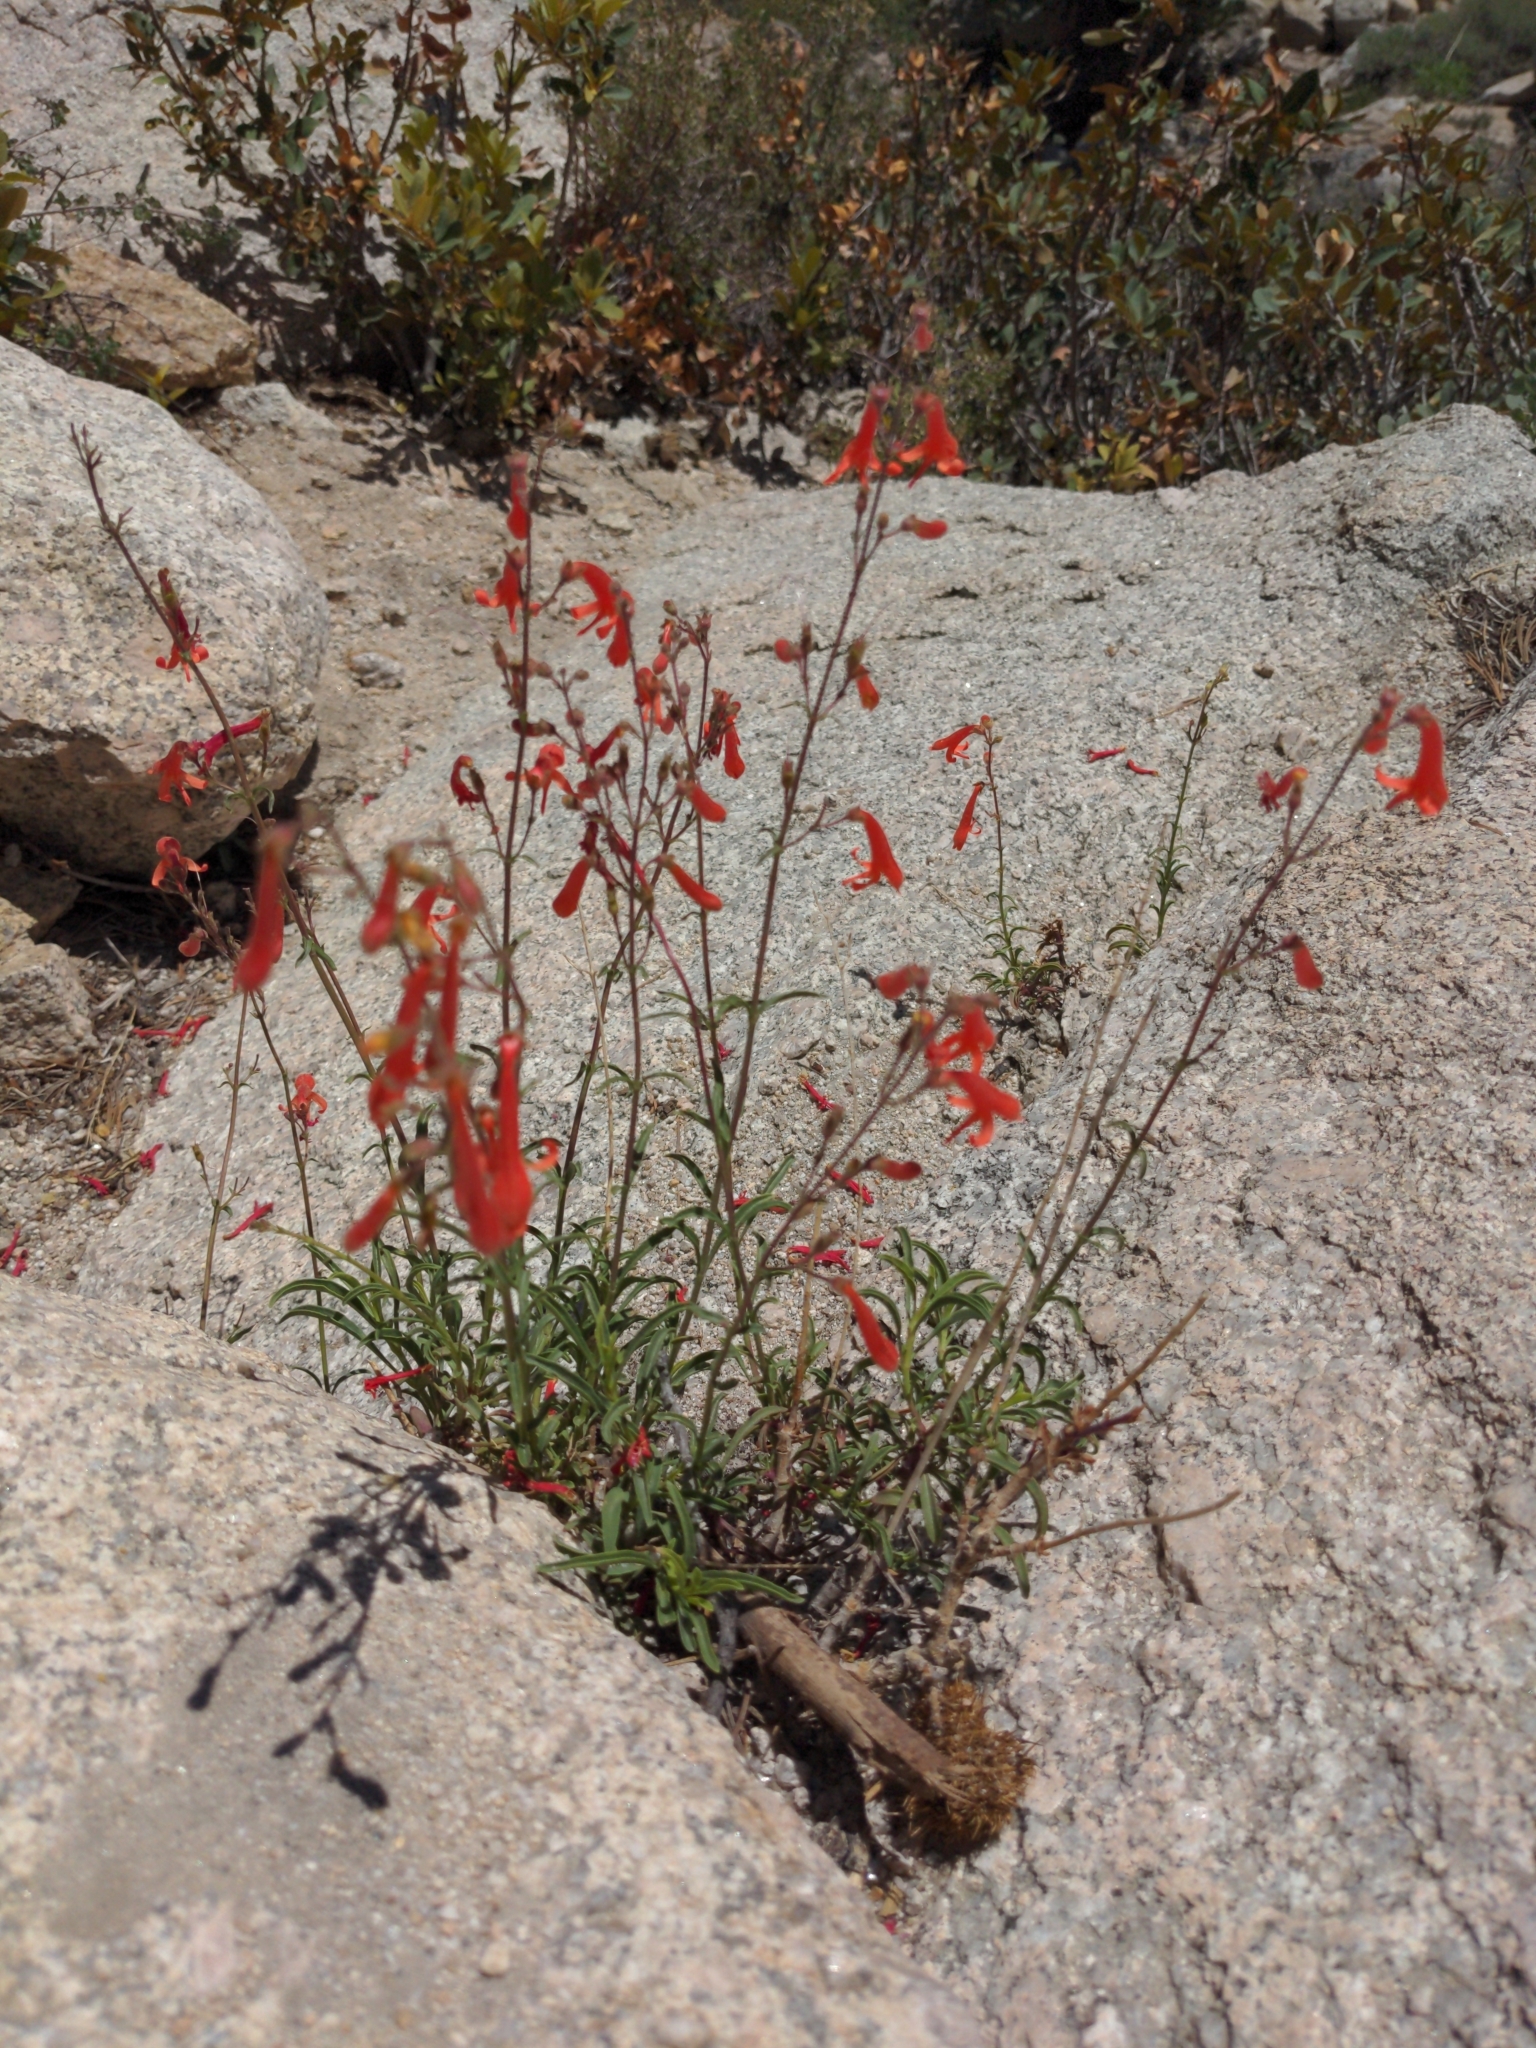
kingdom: Plantae
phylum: Tracheophyta
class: Magnoliopsida
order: Lamiales
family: Plantaginaceae
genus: Penstemon
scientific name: Penstemon rostriflorus
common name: Bridges's penstemon
